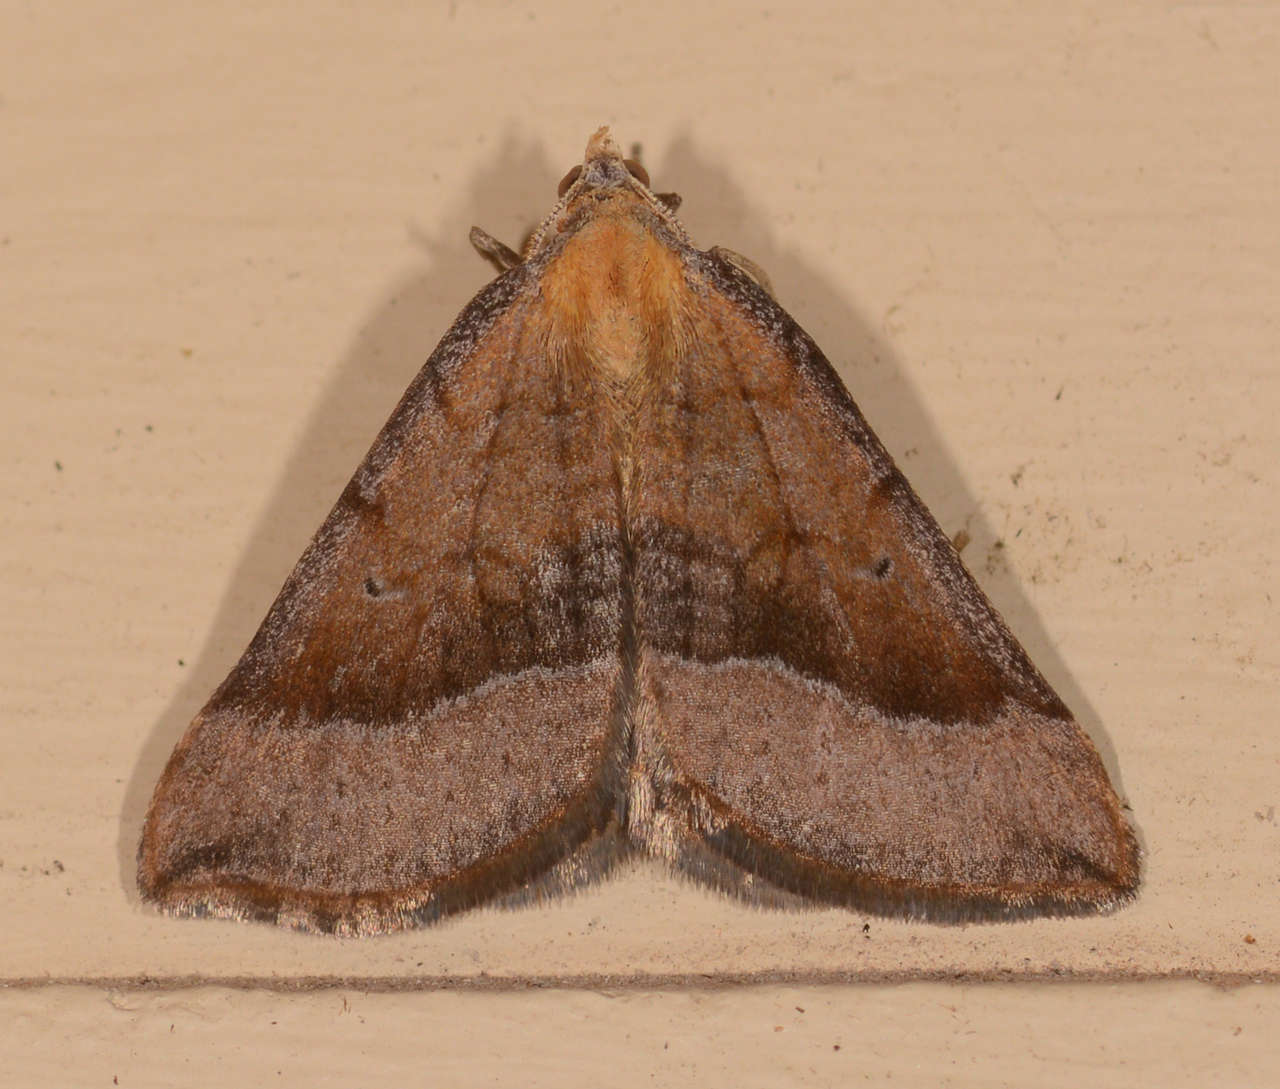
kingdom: Animalia
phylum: Arthropoda
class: Insecta
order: Lepidoptera
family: Geometridae
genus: Anachloris
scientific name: Anachloris subochraria
